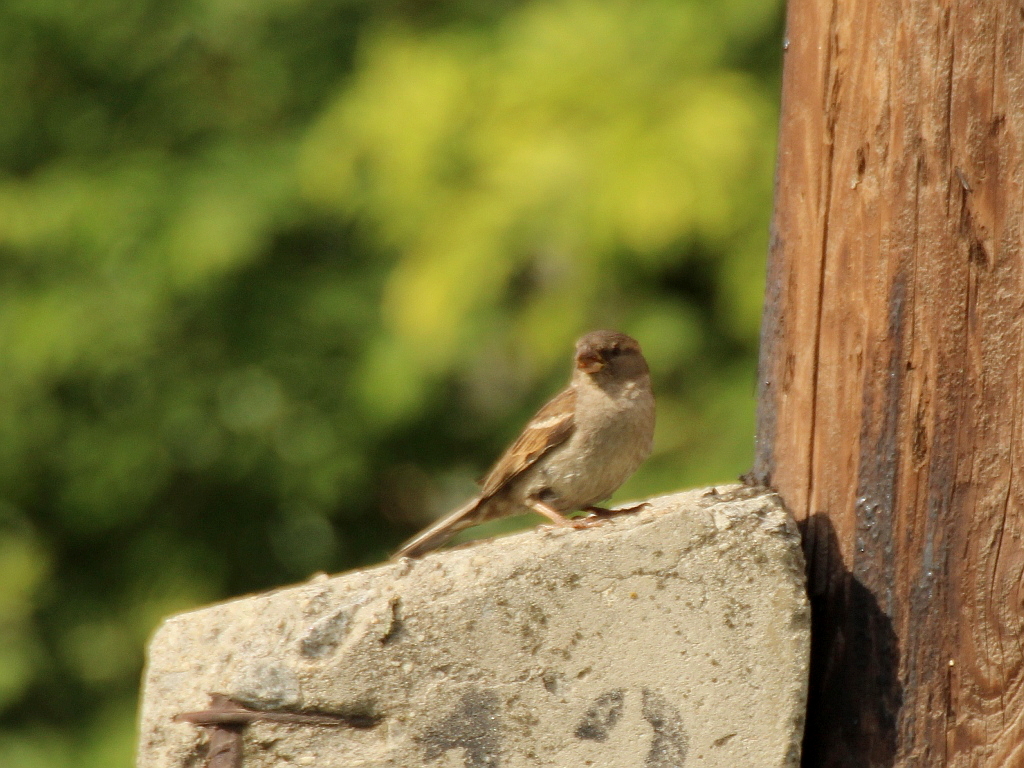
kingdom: Animalia
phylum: Chordata
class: Aves
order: Passeriformes
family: Passeridae
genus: Passer
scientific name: Passer domesticus
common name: House sparrow
